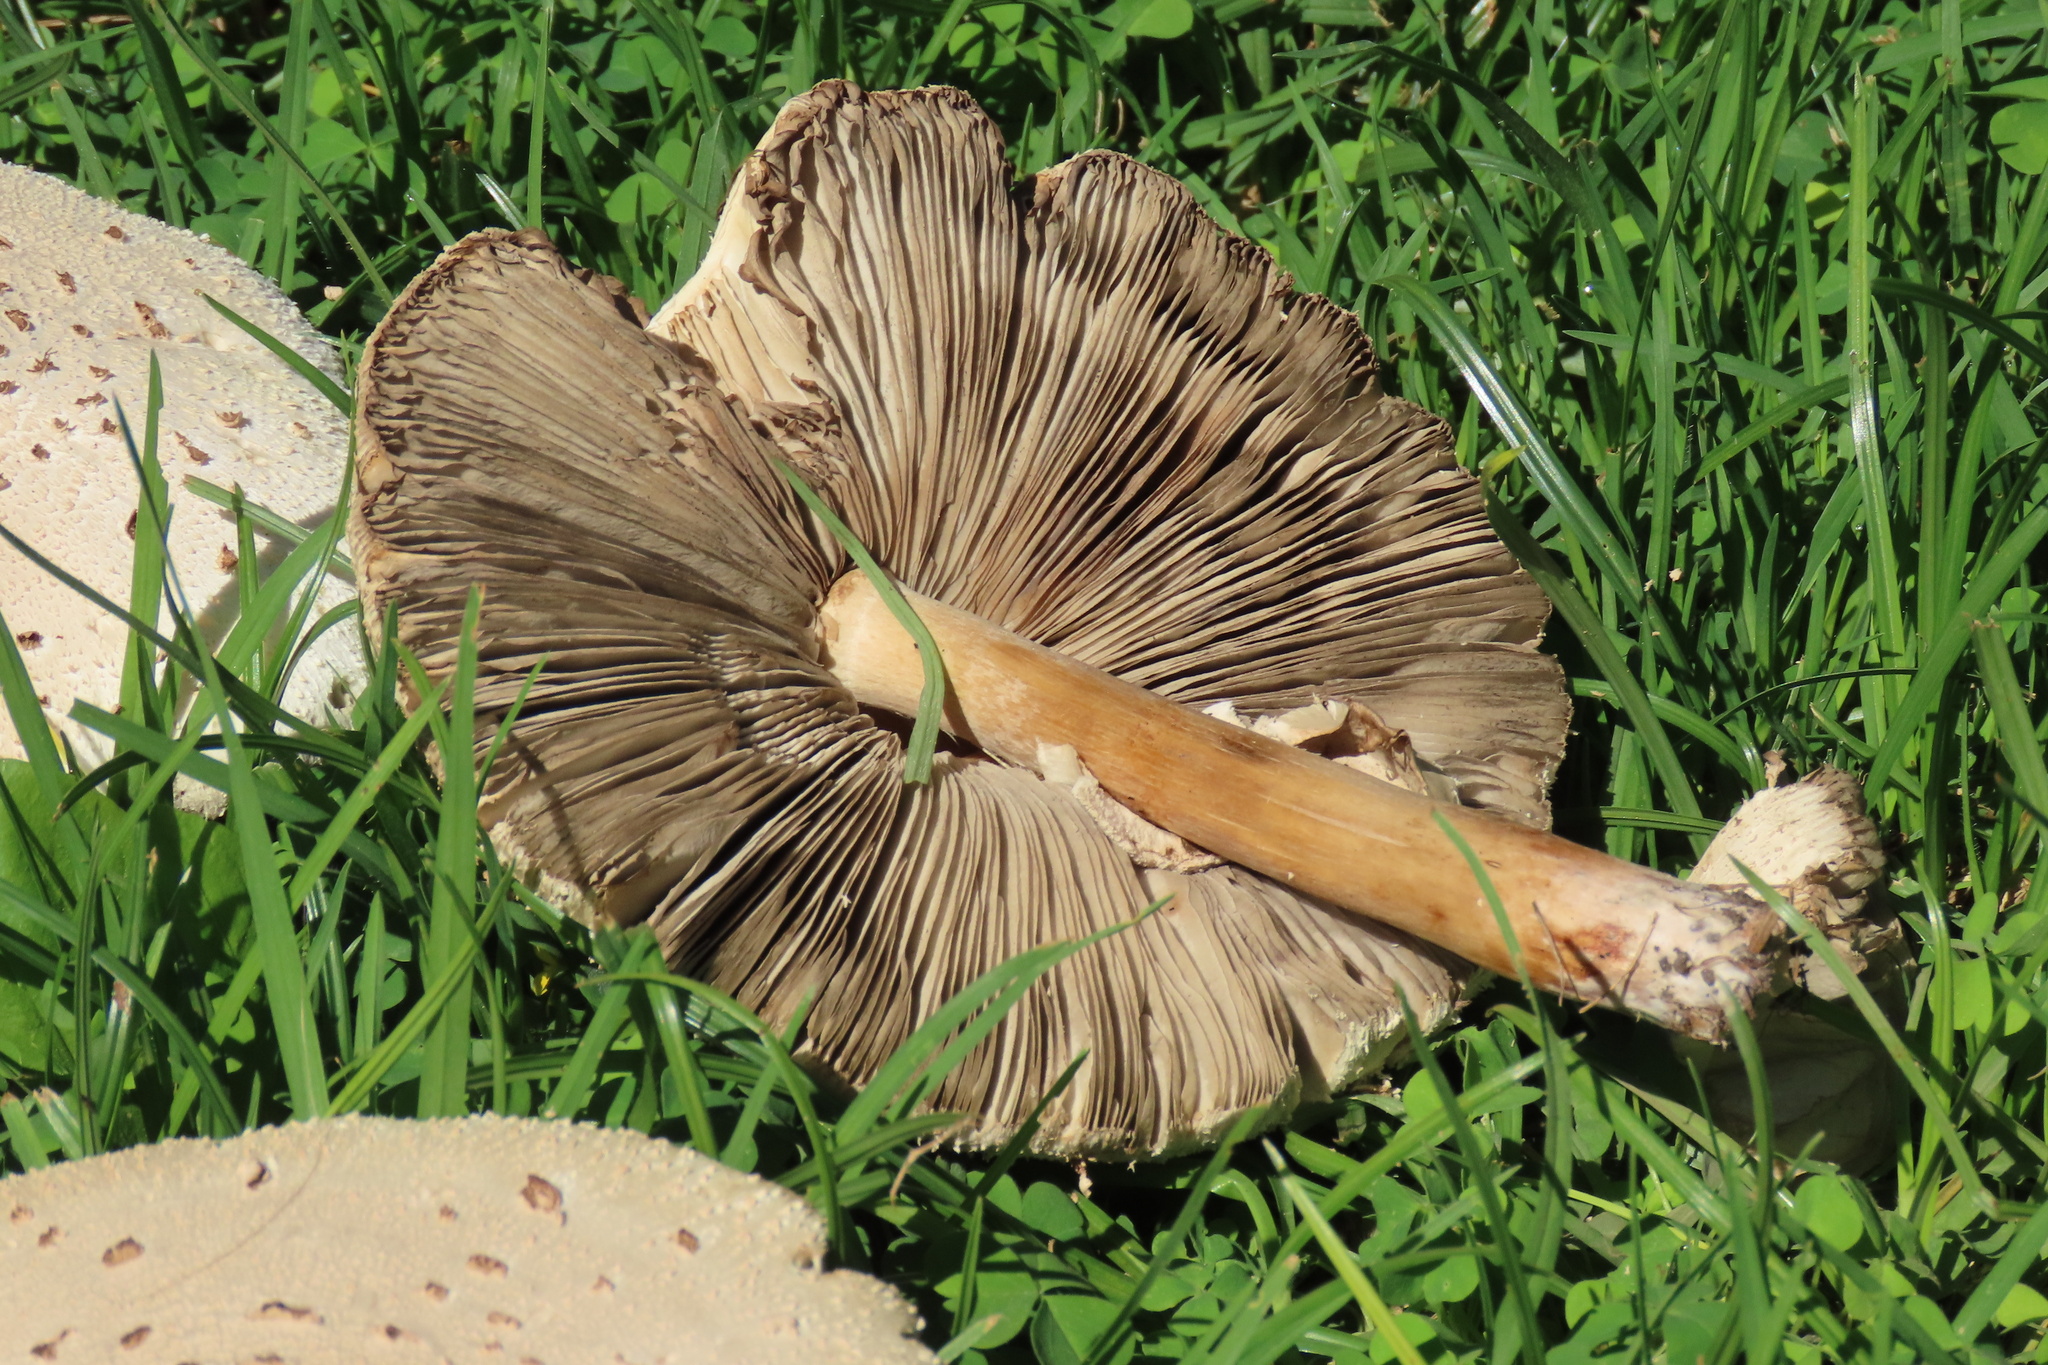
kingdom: Fungi
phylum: Basidiomycota
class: Agaricomycetes
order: Agaricales
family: Agaricaceae
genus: Chlorophyllum
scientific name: Chlorophyllum molybdites
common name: False parasol
